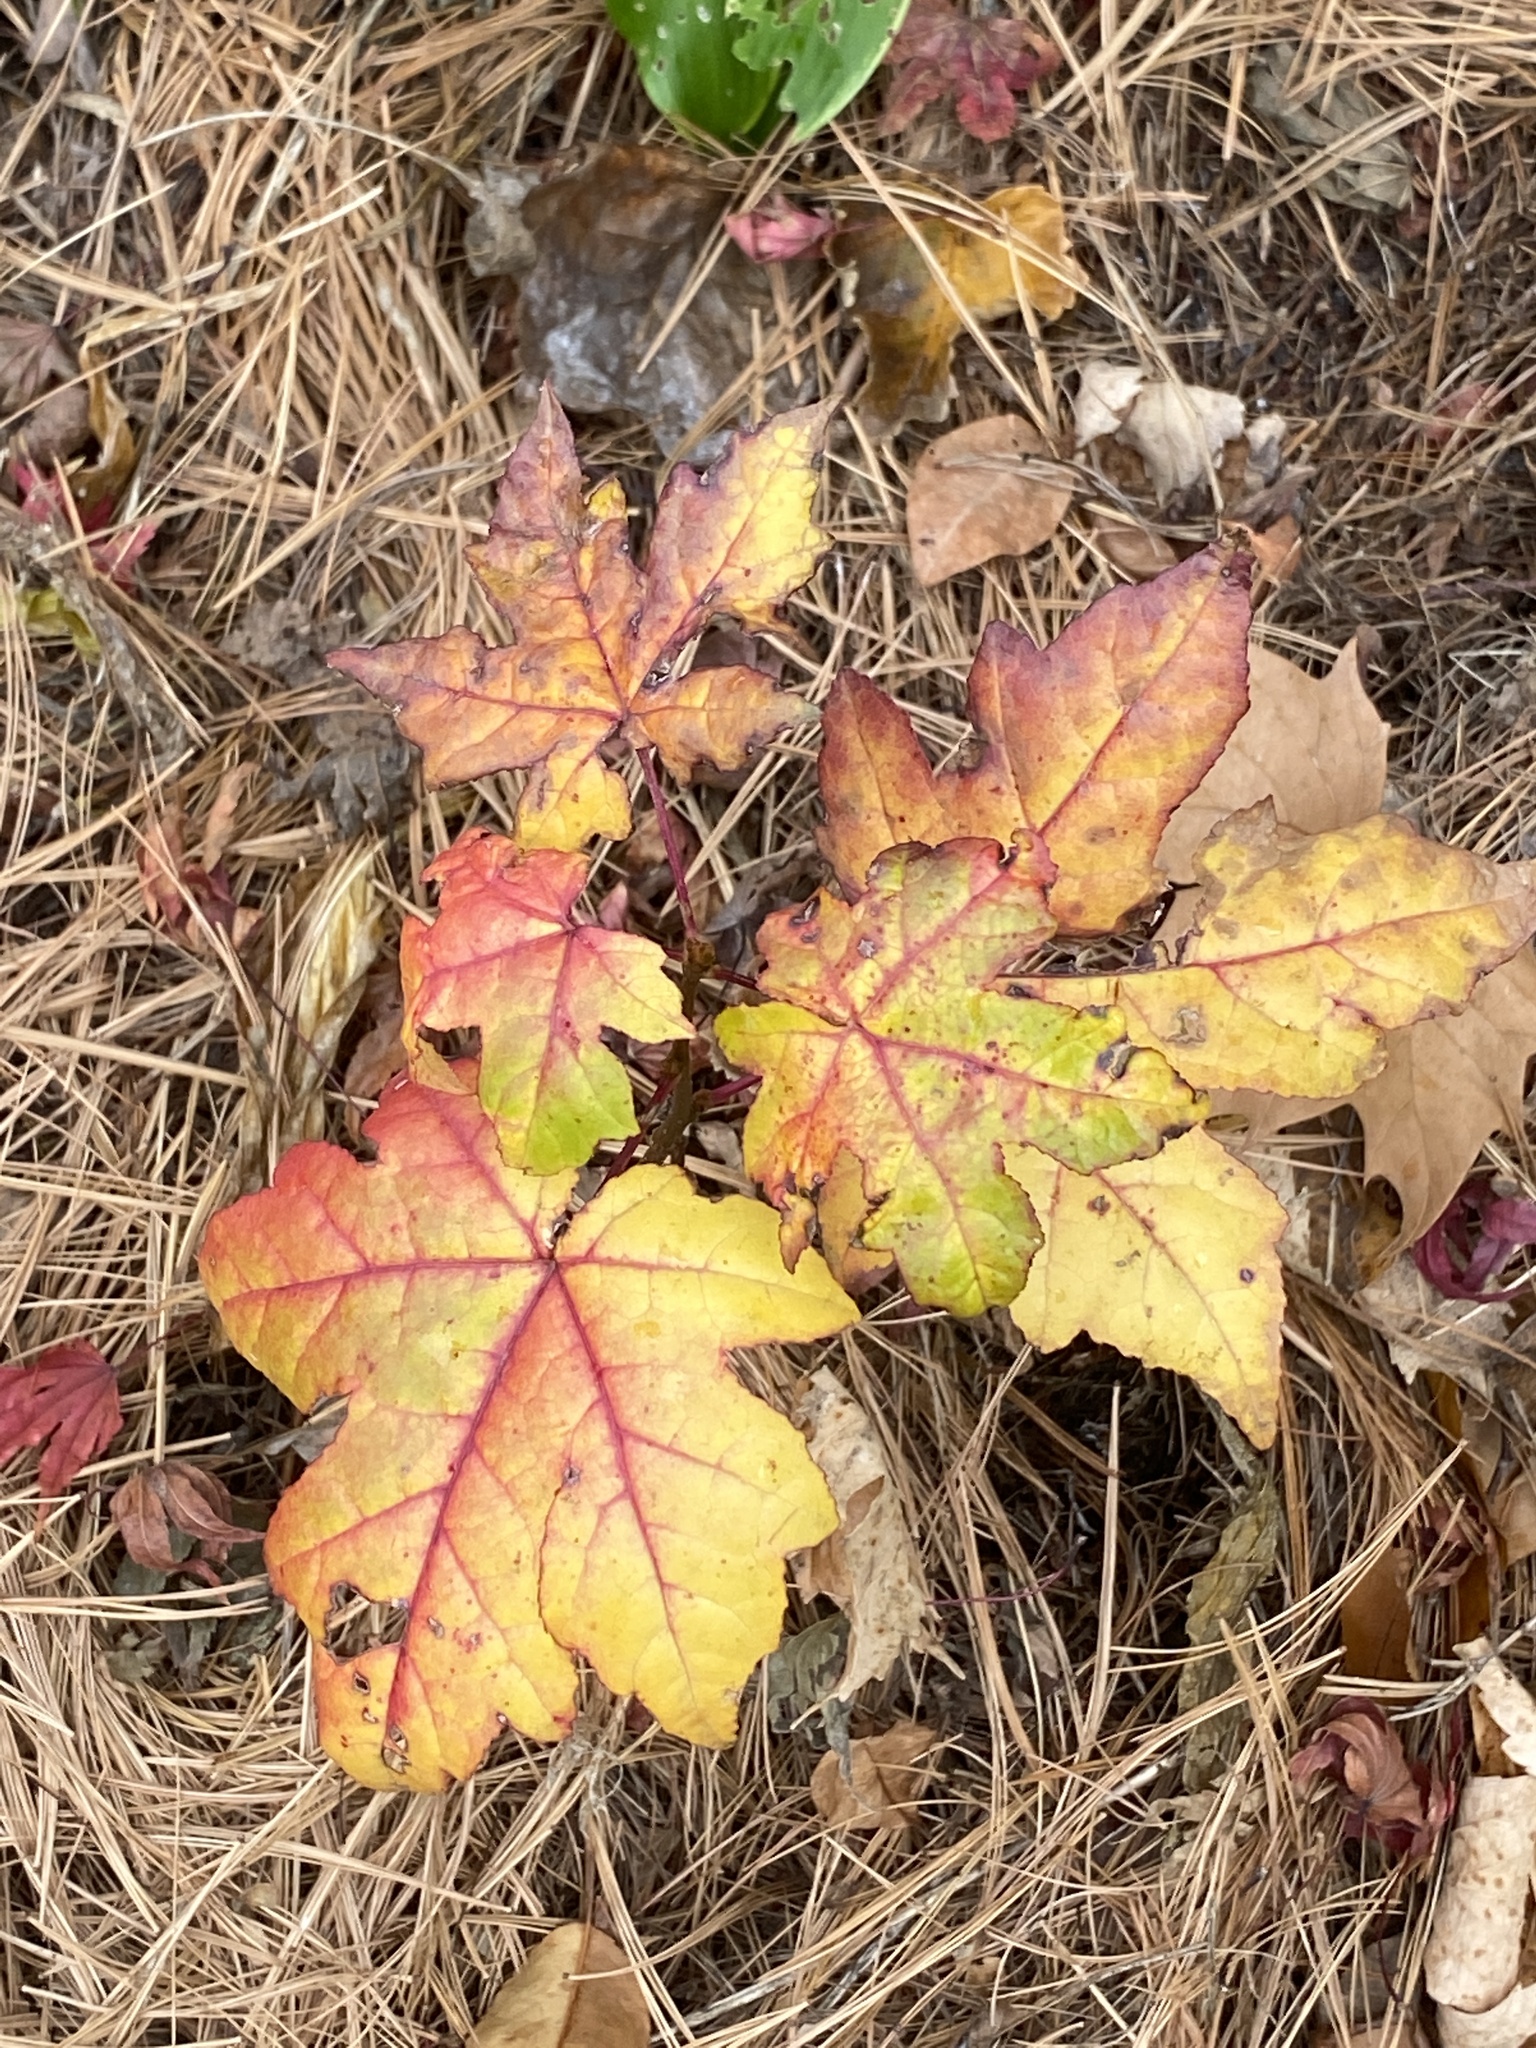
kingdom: Plantae
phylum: Tracheophyta
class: Magnoliopsida
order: Saxifragales
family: Altingiaceae
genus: Liquidambar
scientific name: Liquidambar styraciflua
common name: Sweet gum
